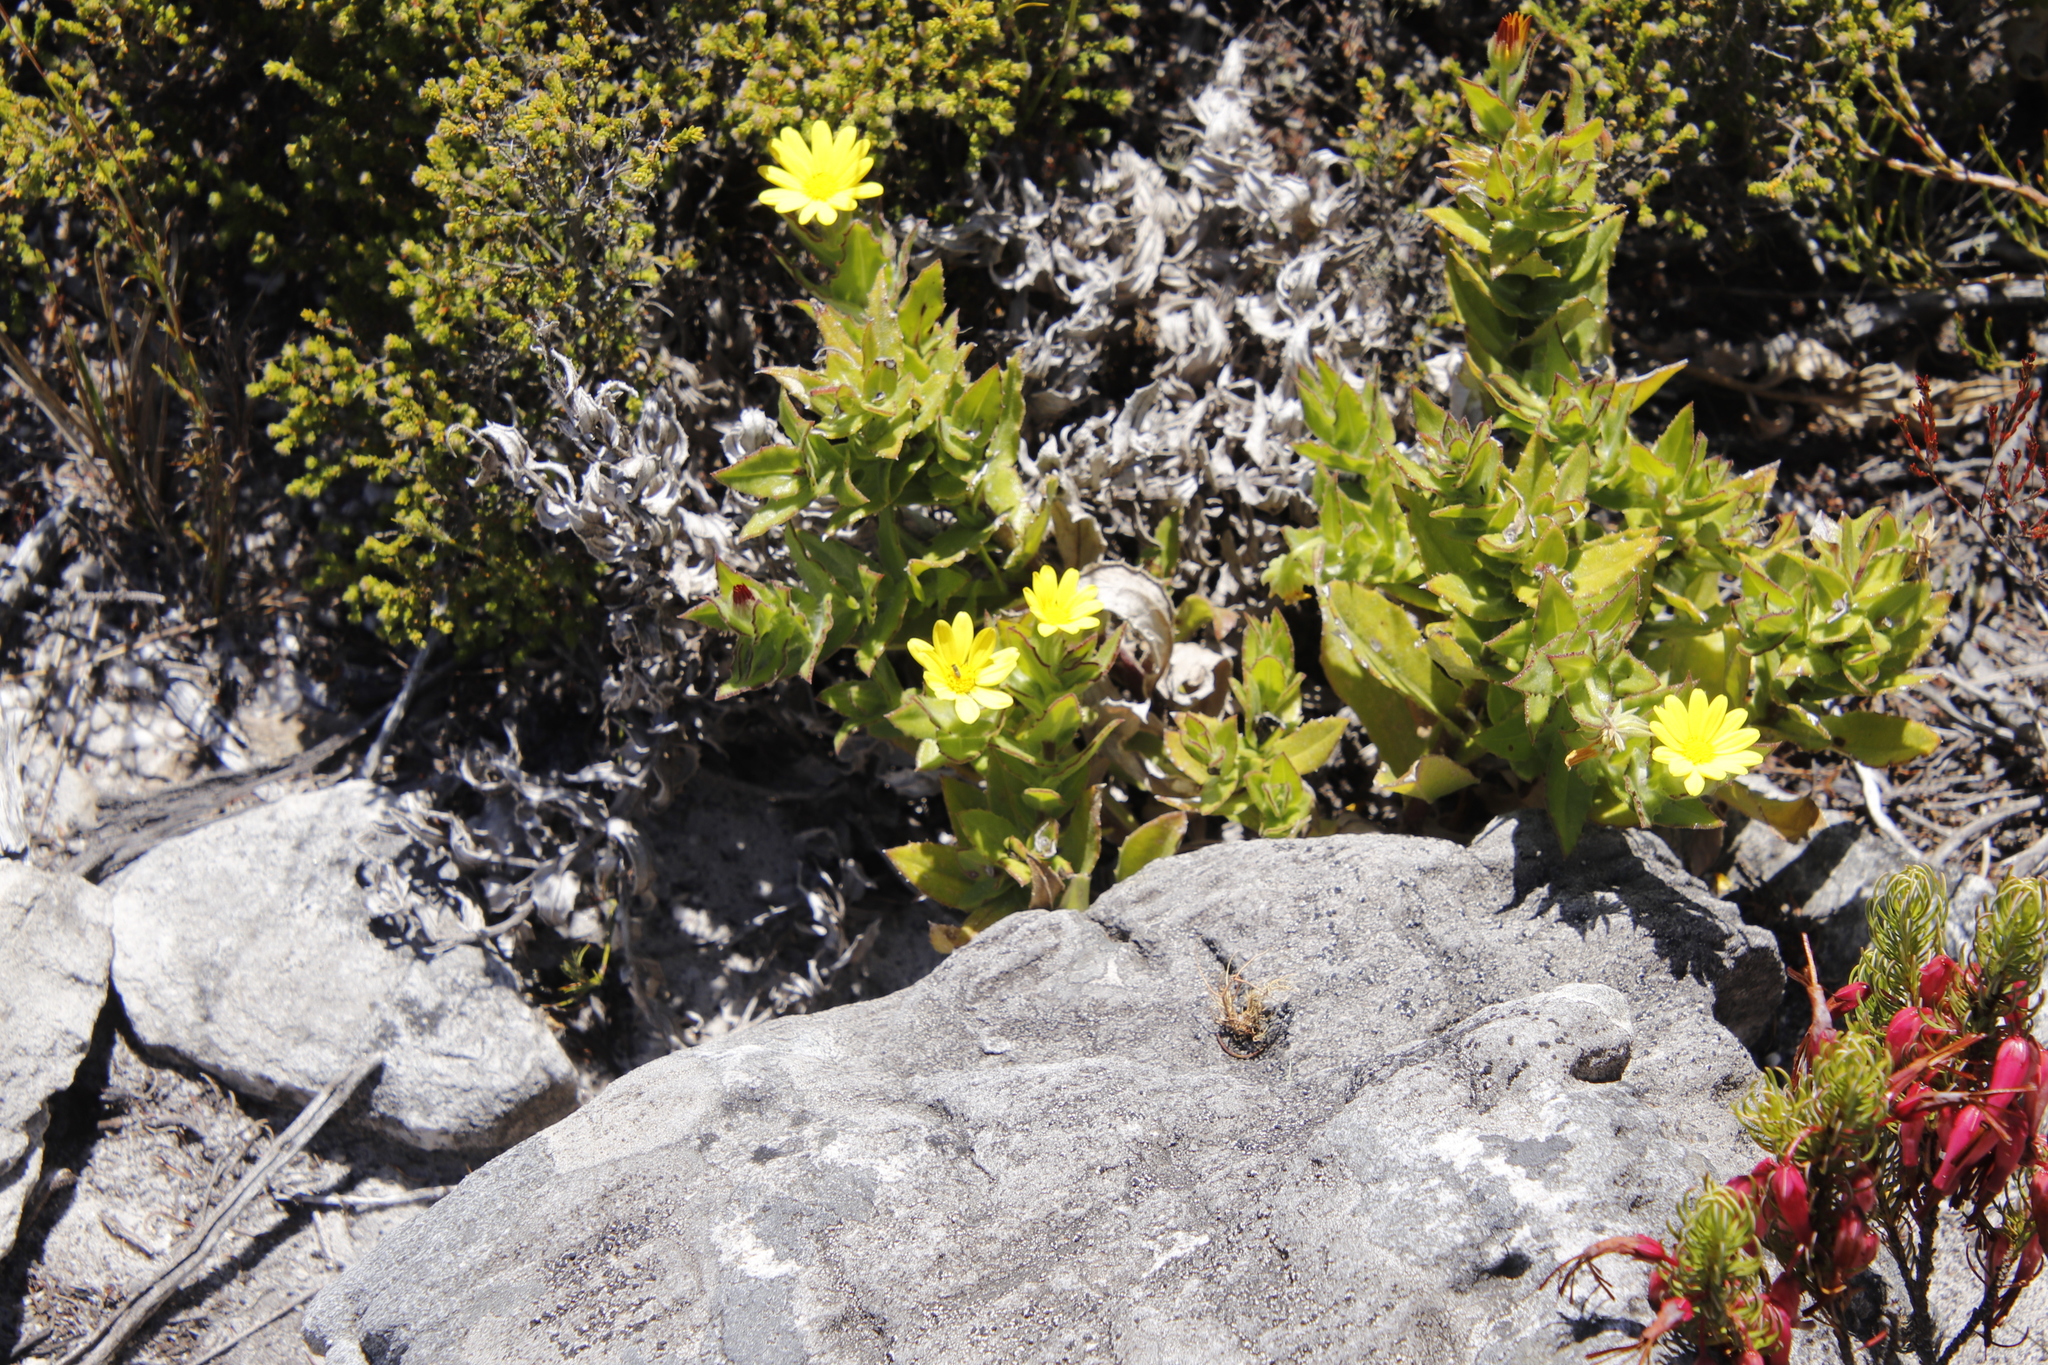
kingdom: Plantae
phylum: Tracheophyta
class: Magnoliopsida
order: Asterales
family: Asteraceae
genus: Osteospermum
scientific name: Osteospermum ilicifolium
